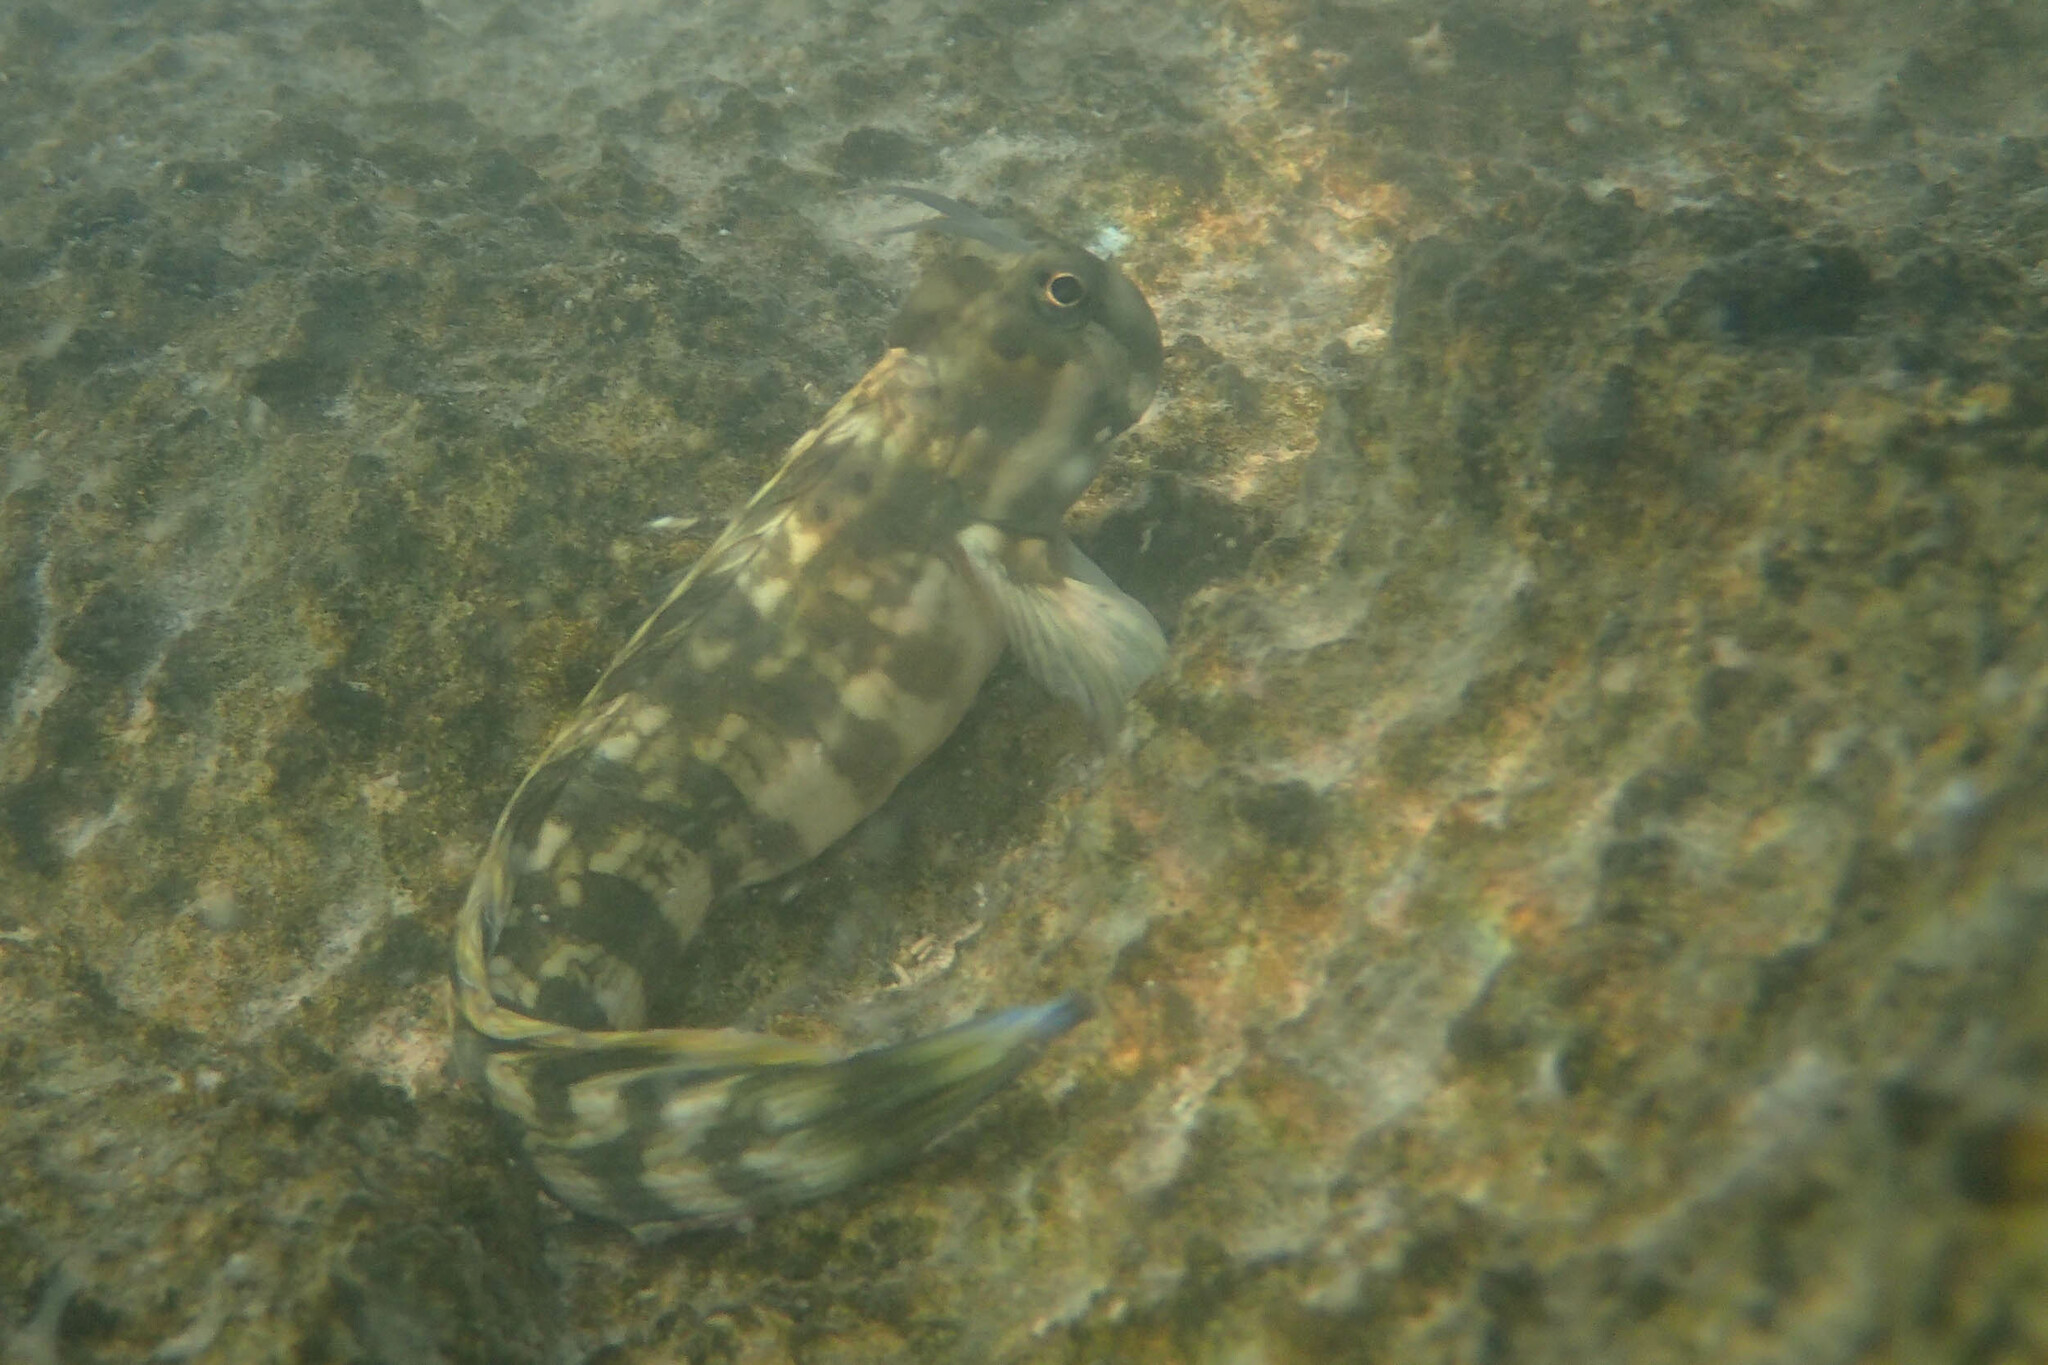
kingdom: Animalia
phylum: Chordata
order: Perciformes
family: Blenniidae
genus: Istiblennius
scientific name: Istiblennius rivulatus
